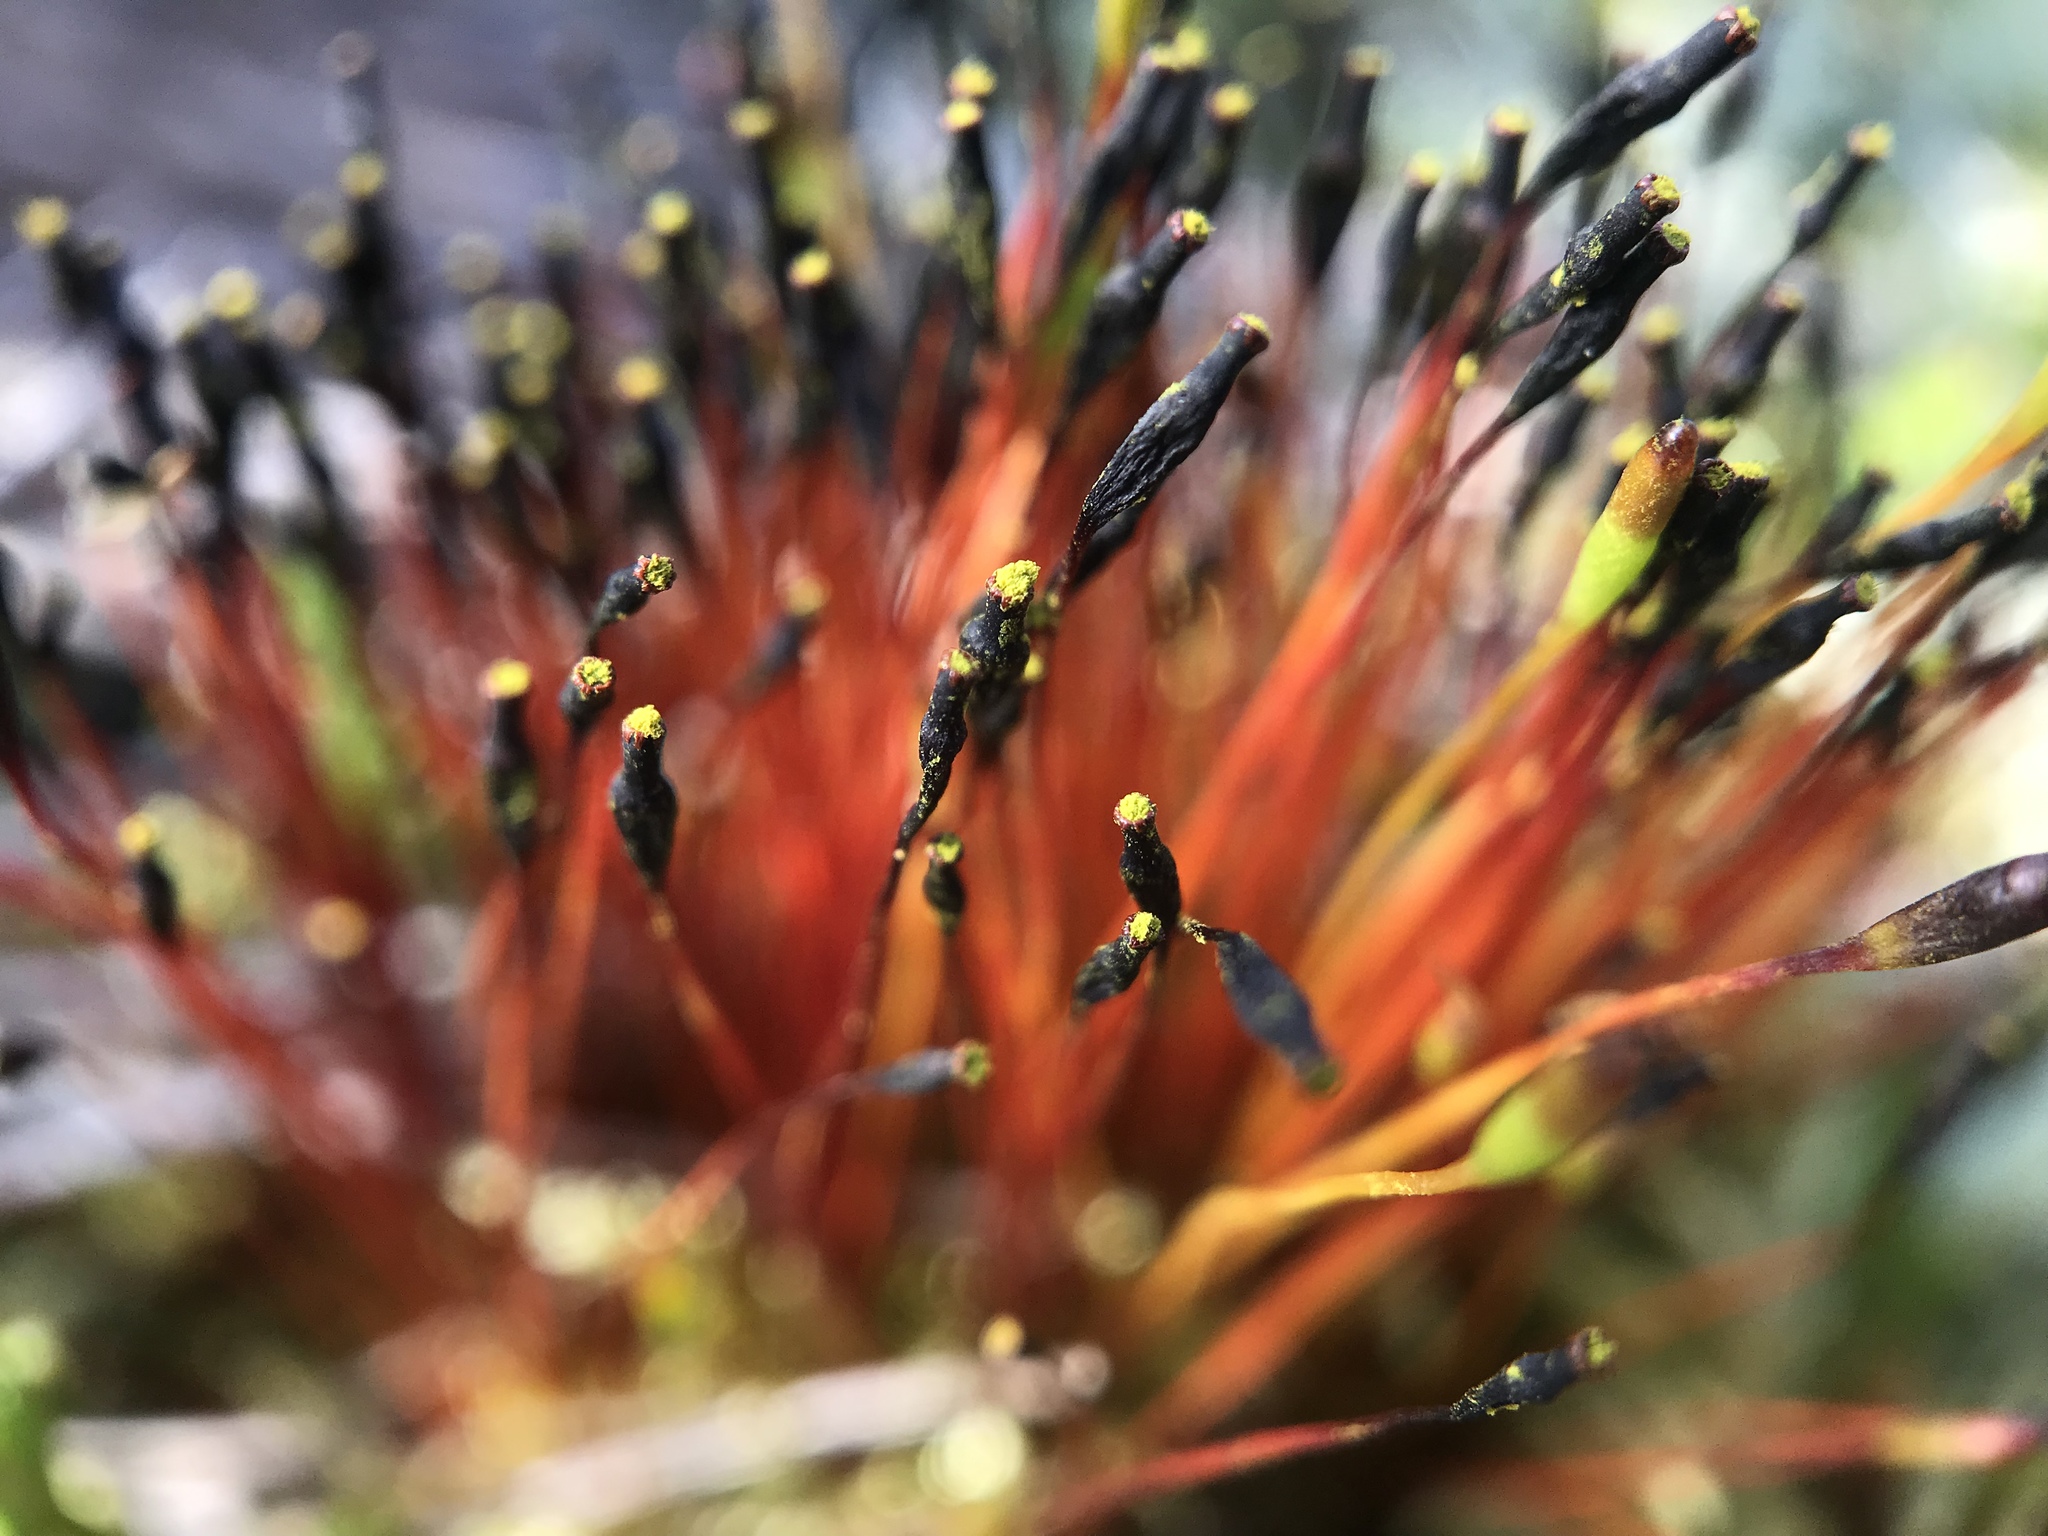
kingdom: Plantae
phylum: Bryophyta
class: Bryopsida
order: Splachnales
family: Splachnaceae
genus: Tetraplodon
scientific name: Tetraplodon mnioides
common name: Entire-leaved nitrogen moss
